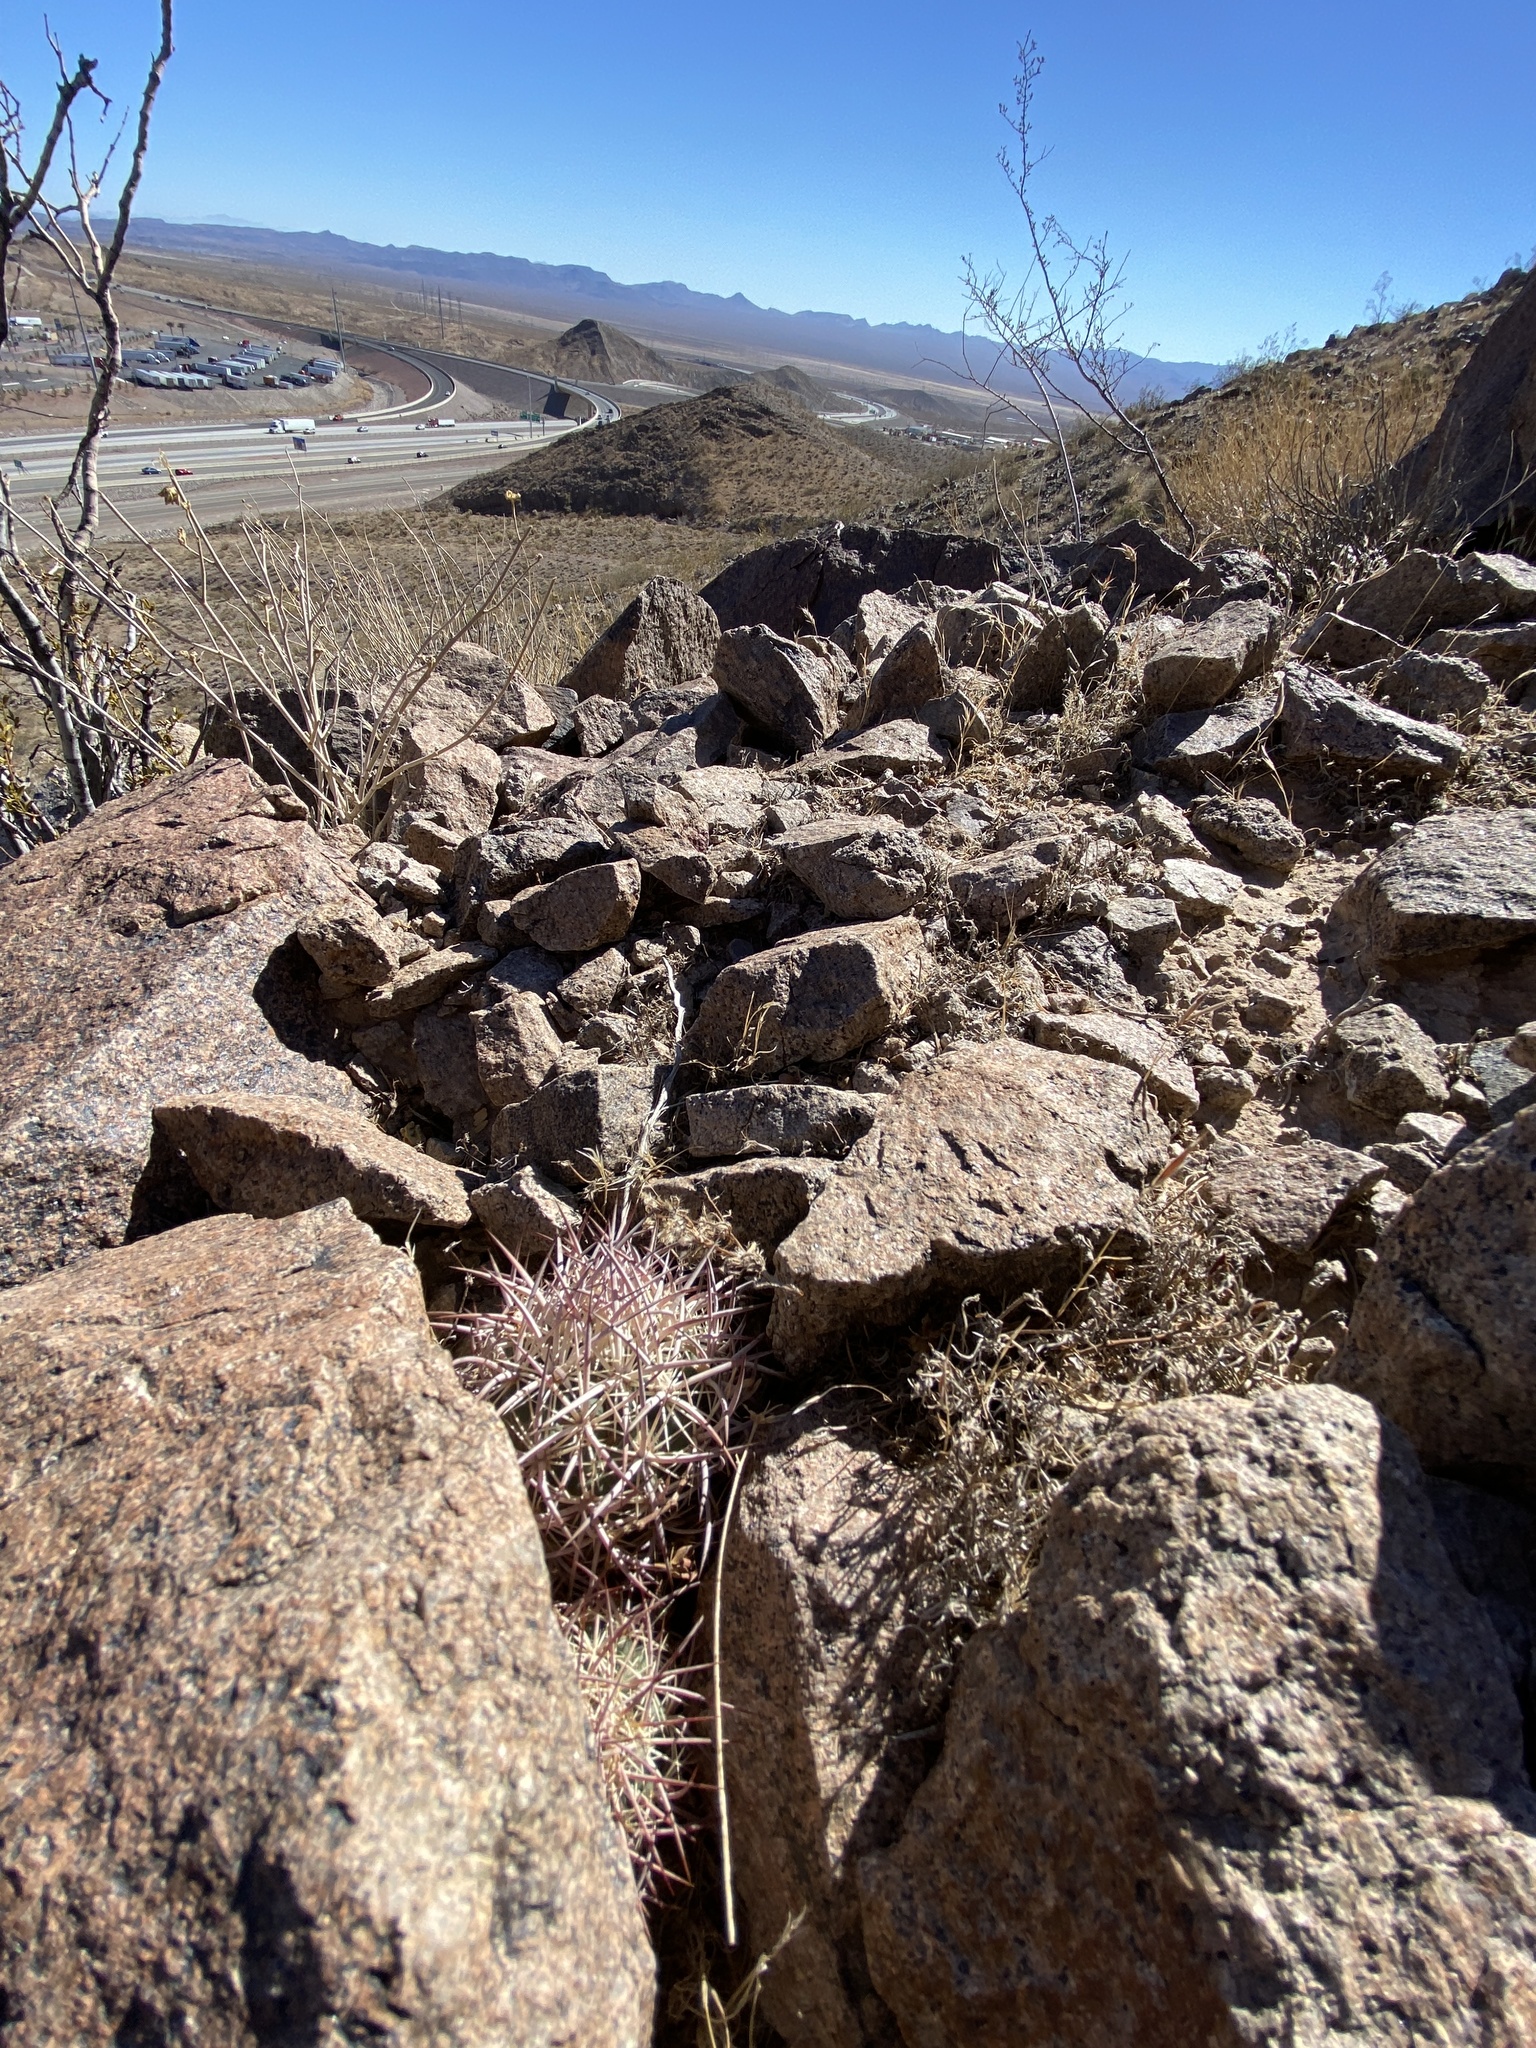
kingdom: Plantae
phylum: Tracheophyta
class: Magnoliopsida
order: Caryophyllales
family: Cactaceae
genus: Sclerocactus
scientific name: Sclerocactus johnsonii
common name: Eight-spine fishhook cactus
